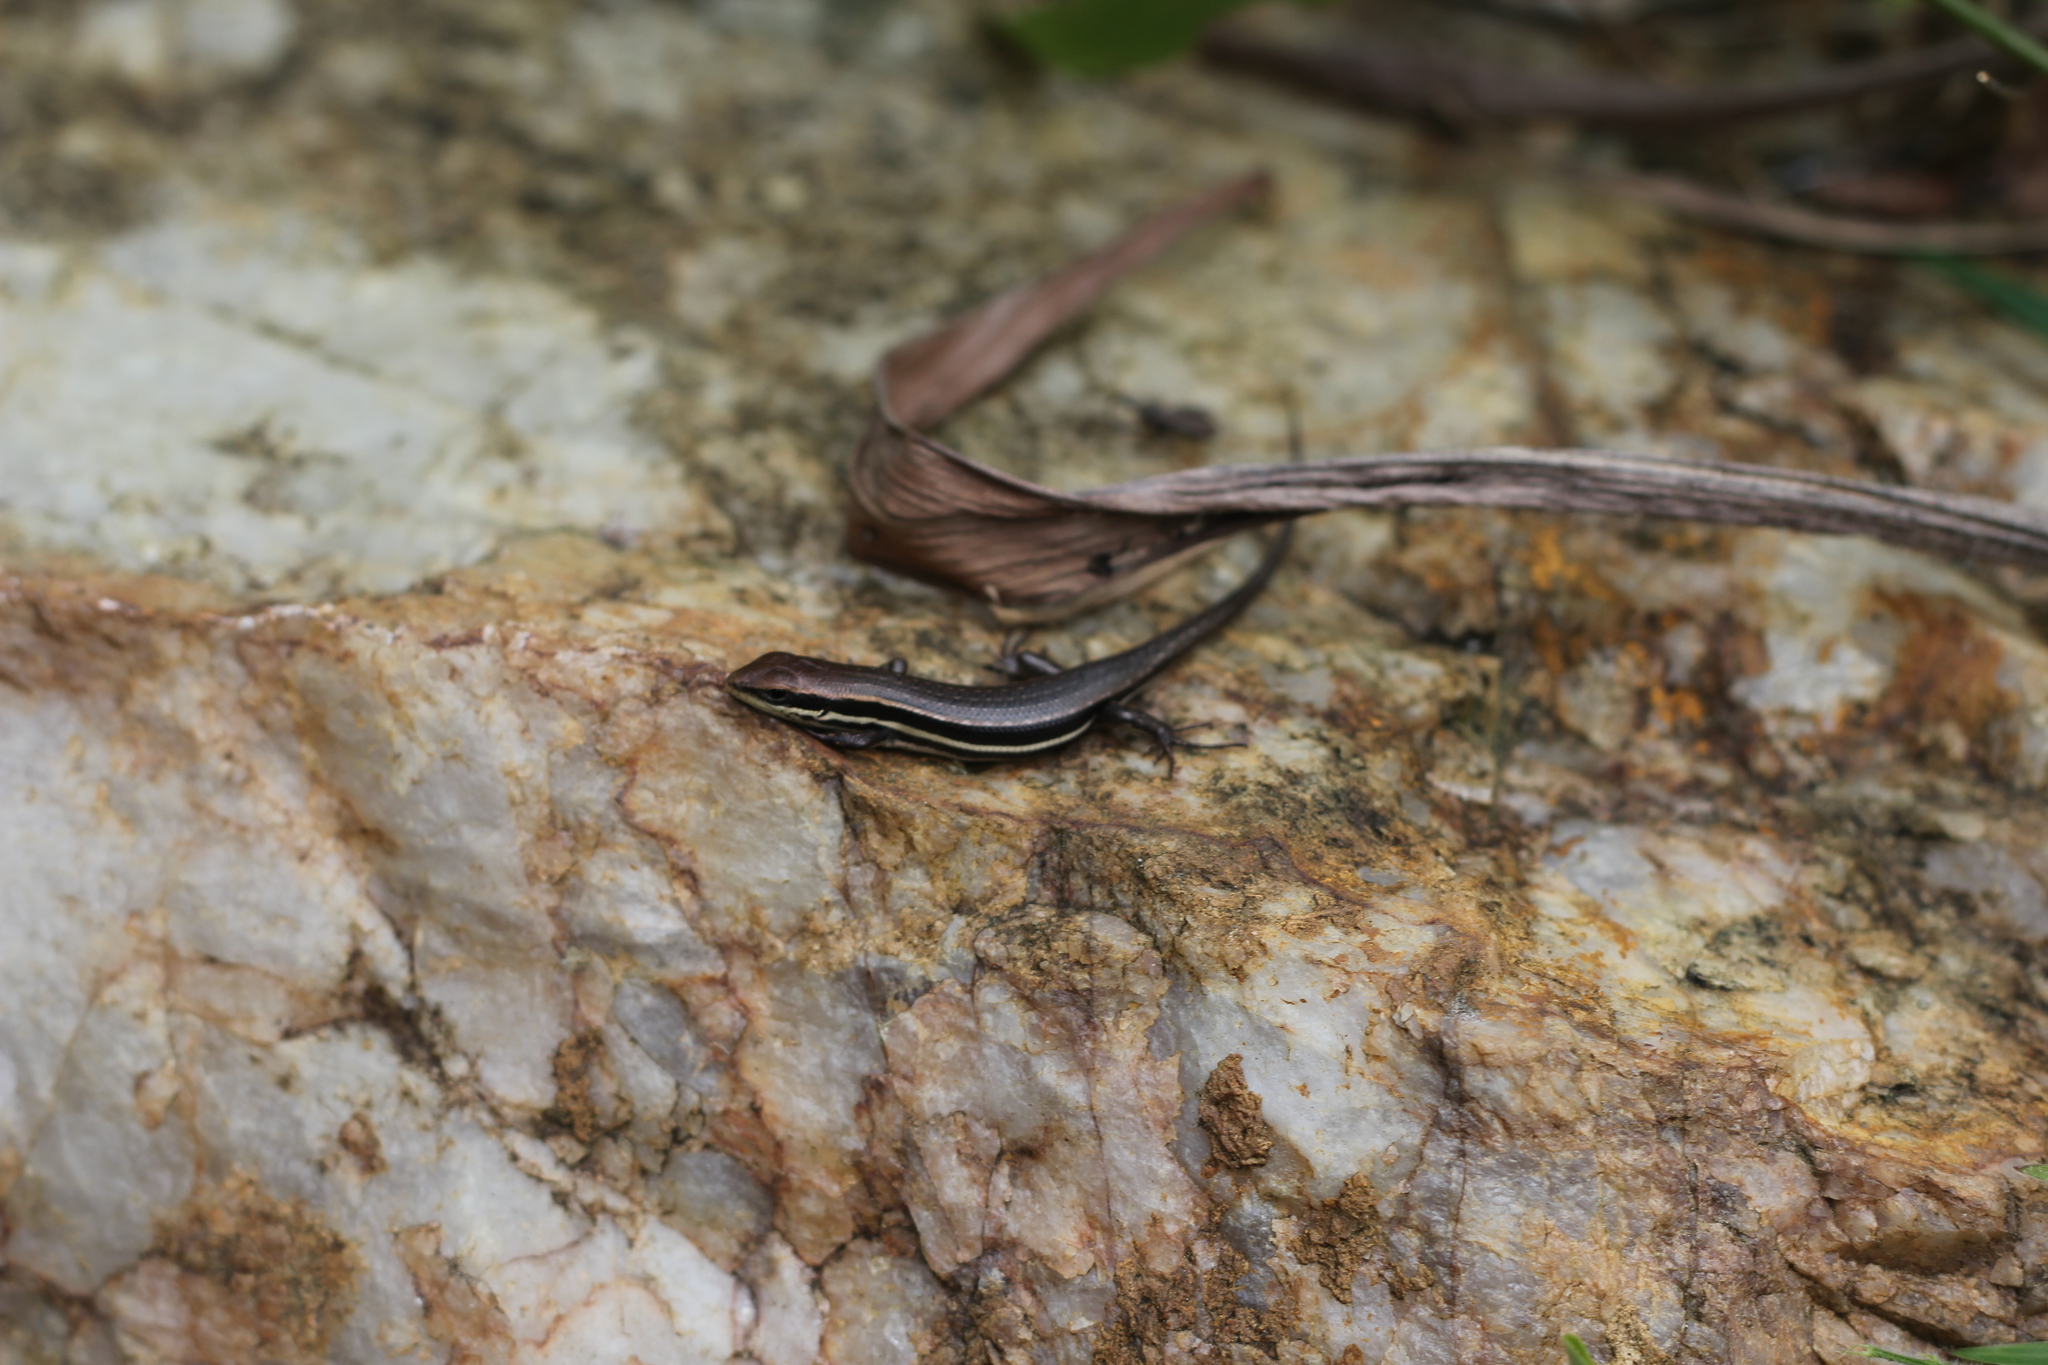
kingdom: Animalia
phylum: Chordata
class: Squamata
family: Scincidae
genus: Trachylepis
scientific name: Trachylepis gravenhorstii
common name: Gravenhorst's mabuya
